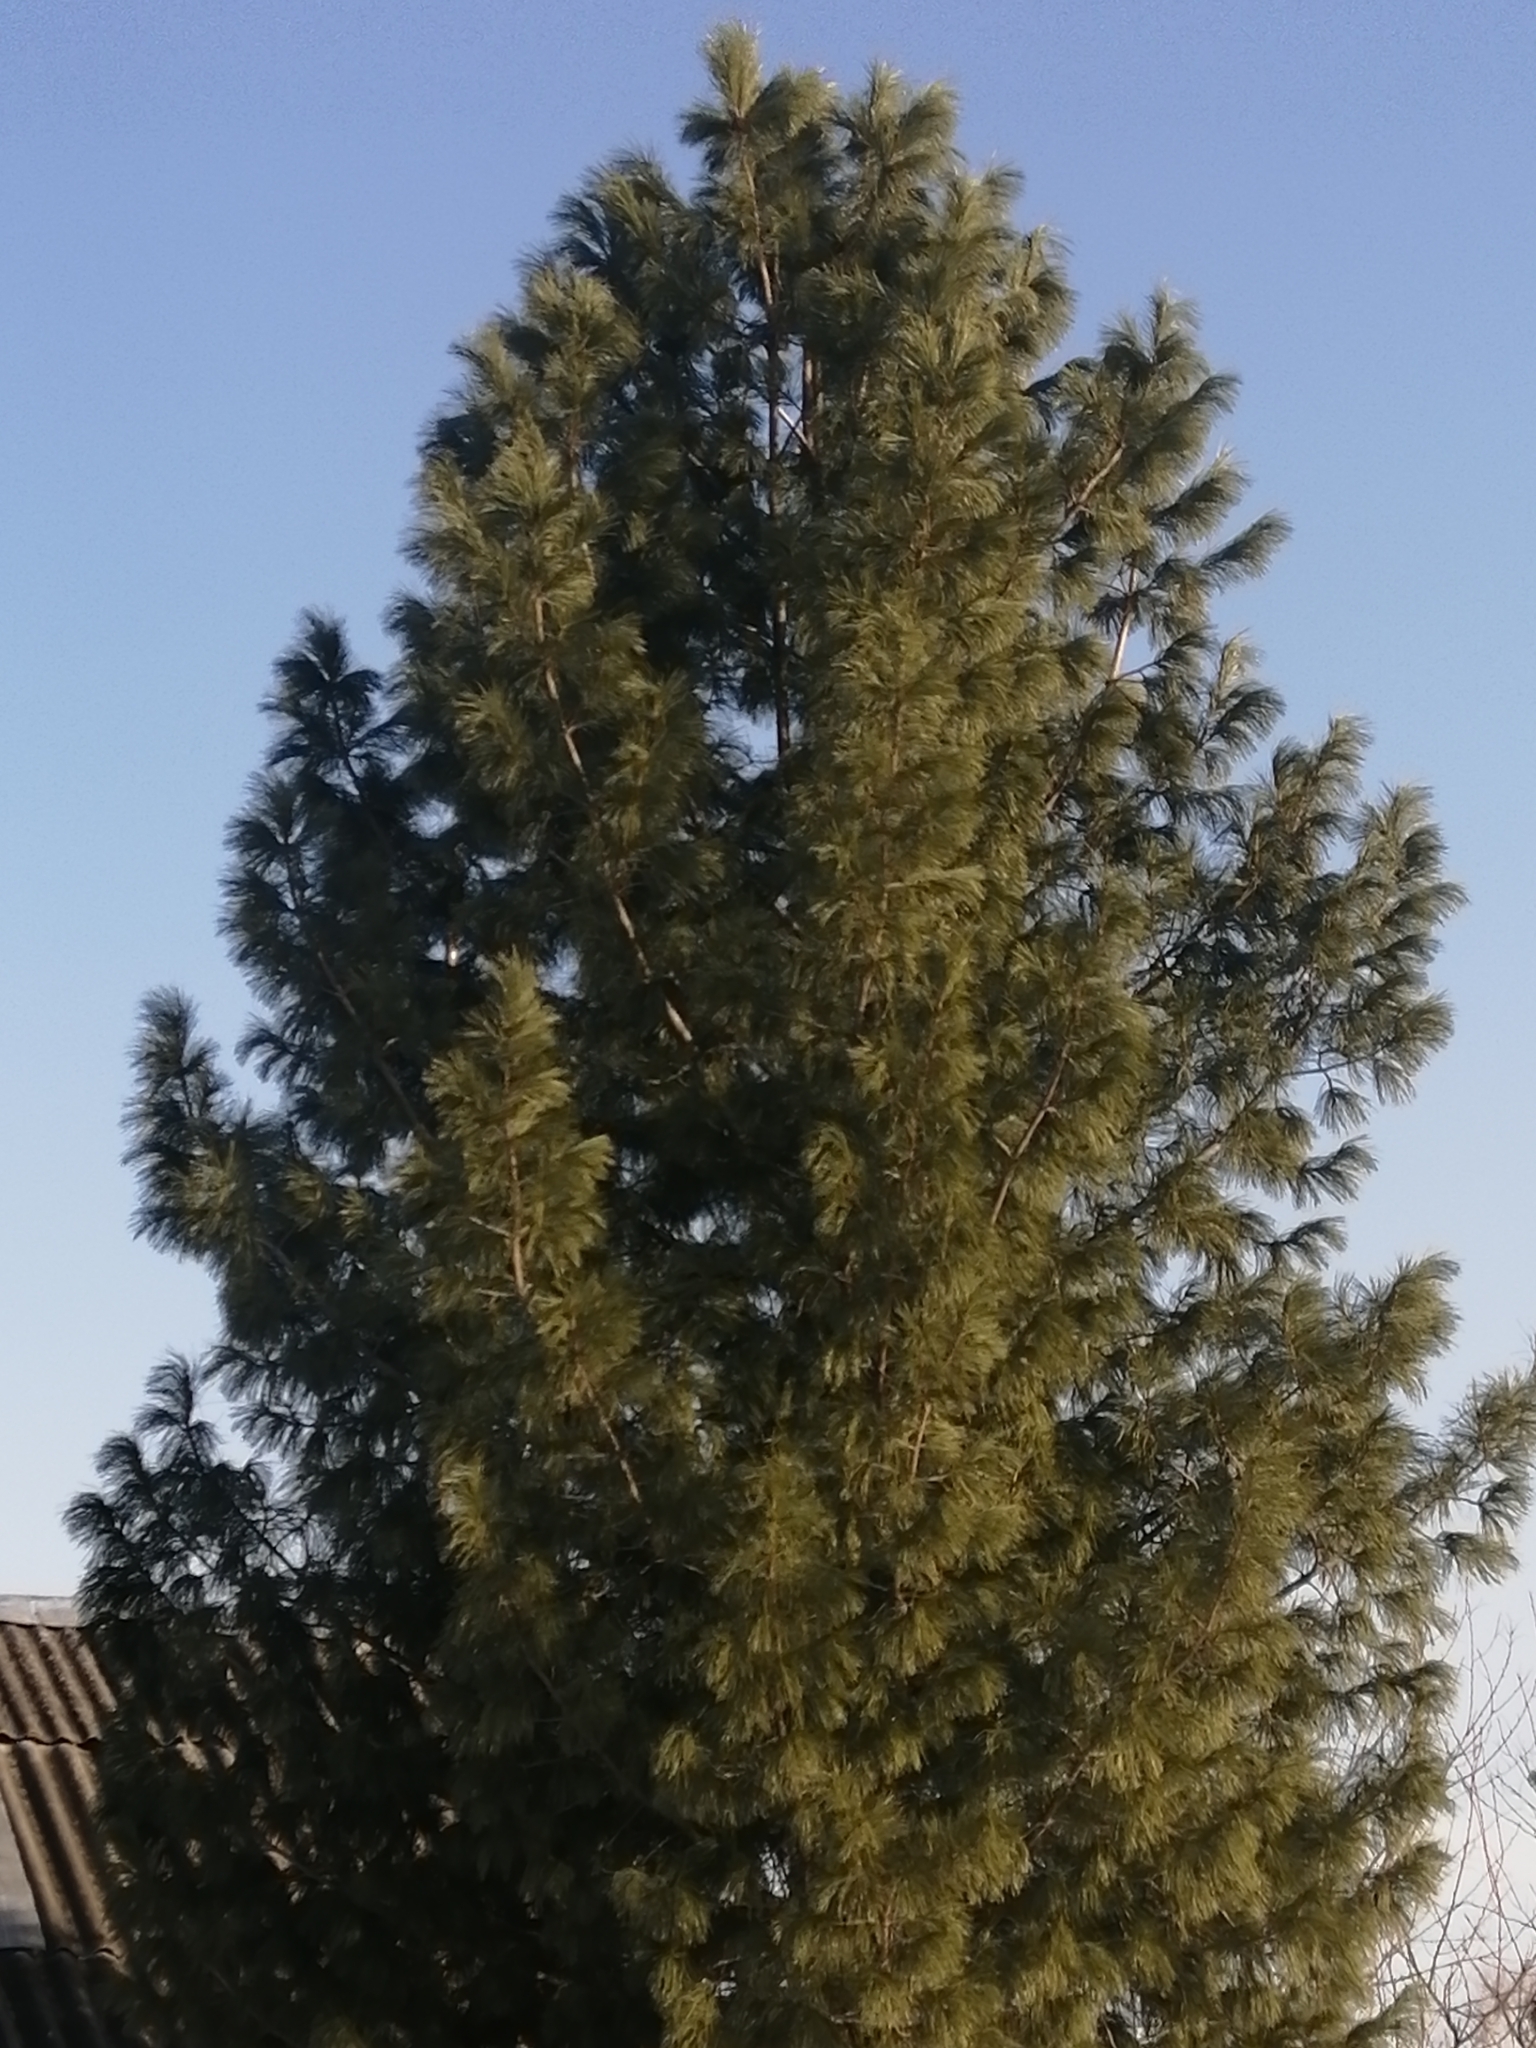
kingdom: Plantae
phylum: Tracheophyta
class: Pinopsida
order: Pinales
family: Pinaceae
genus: Pinus
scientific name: Pinus sibirica
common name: Siberian pine
